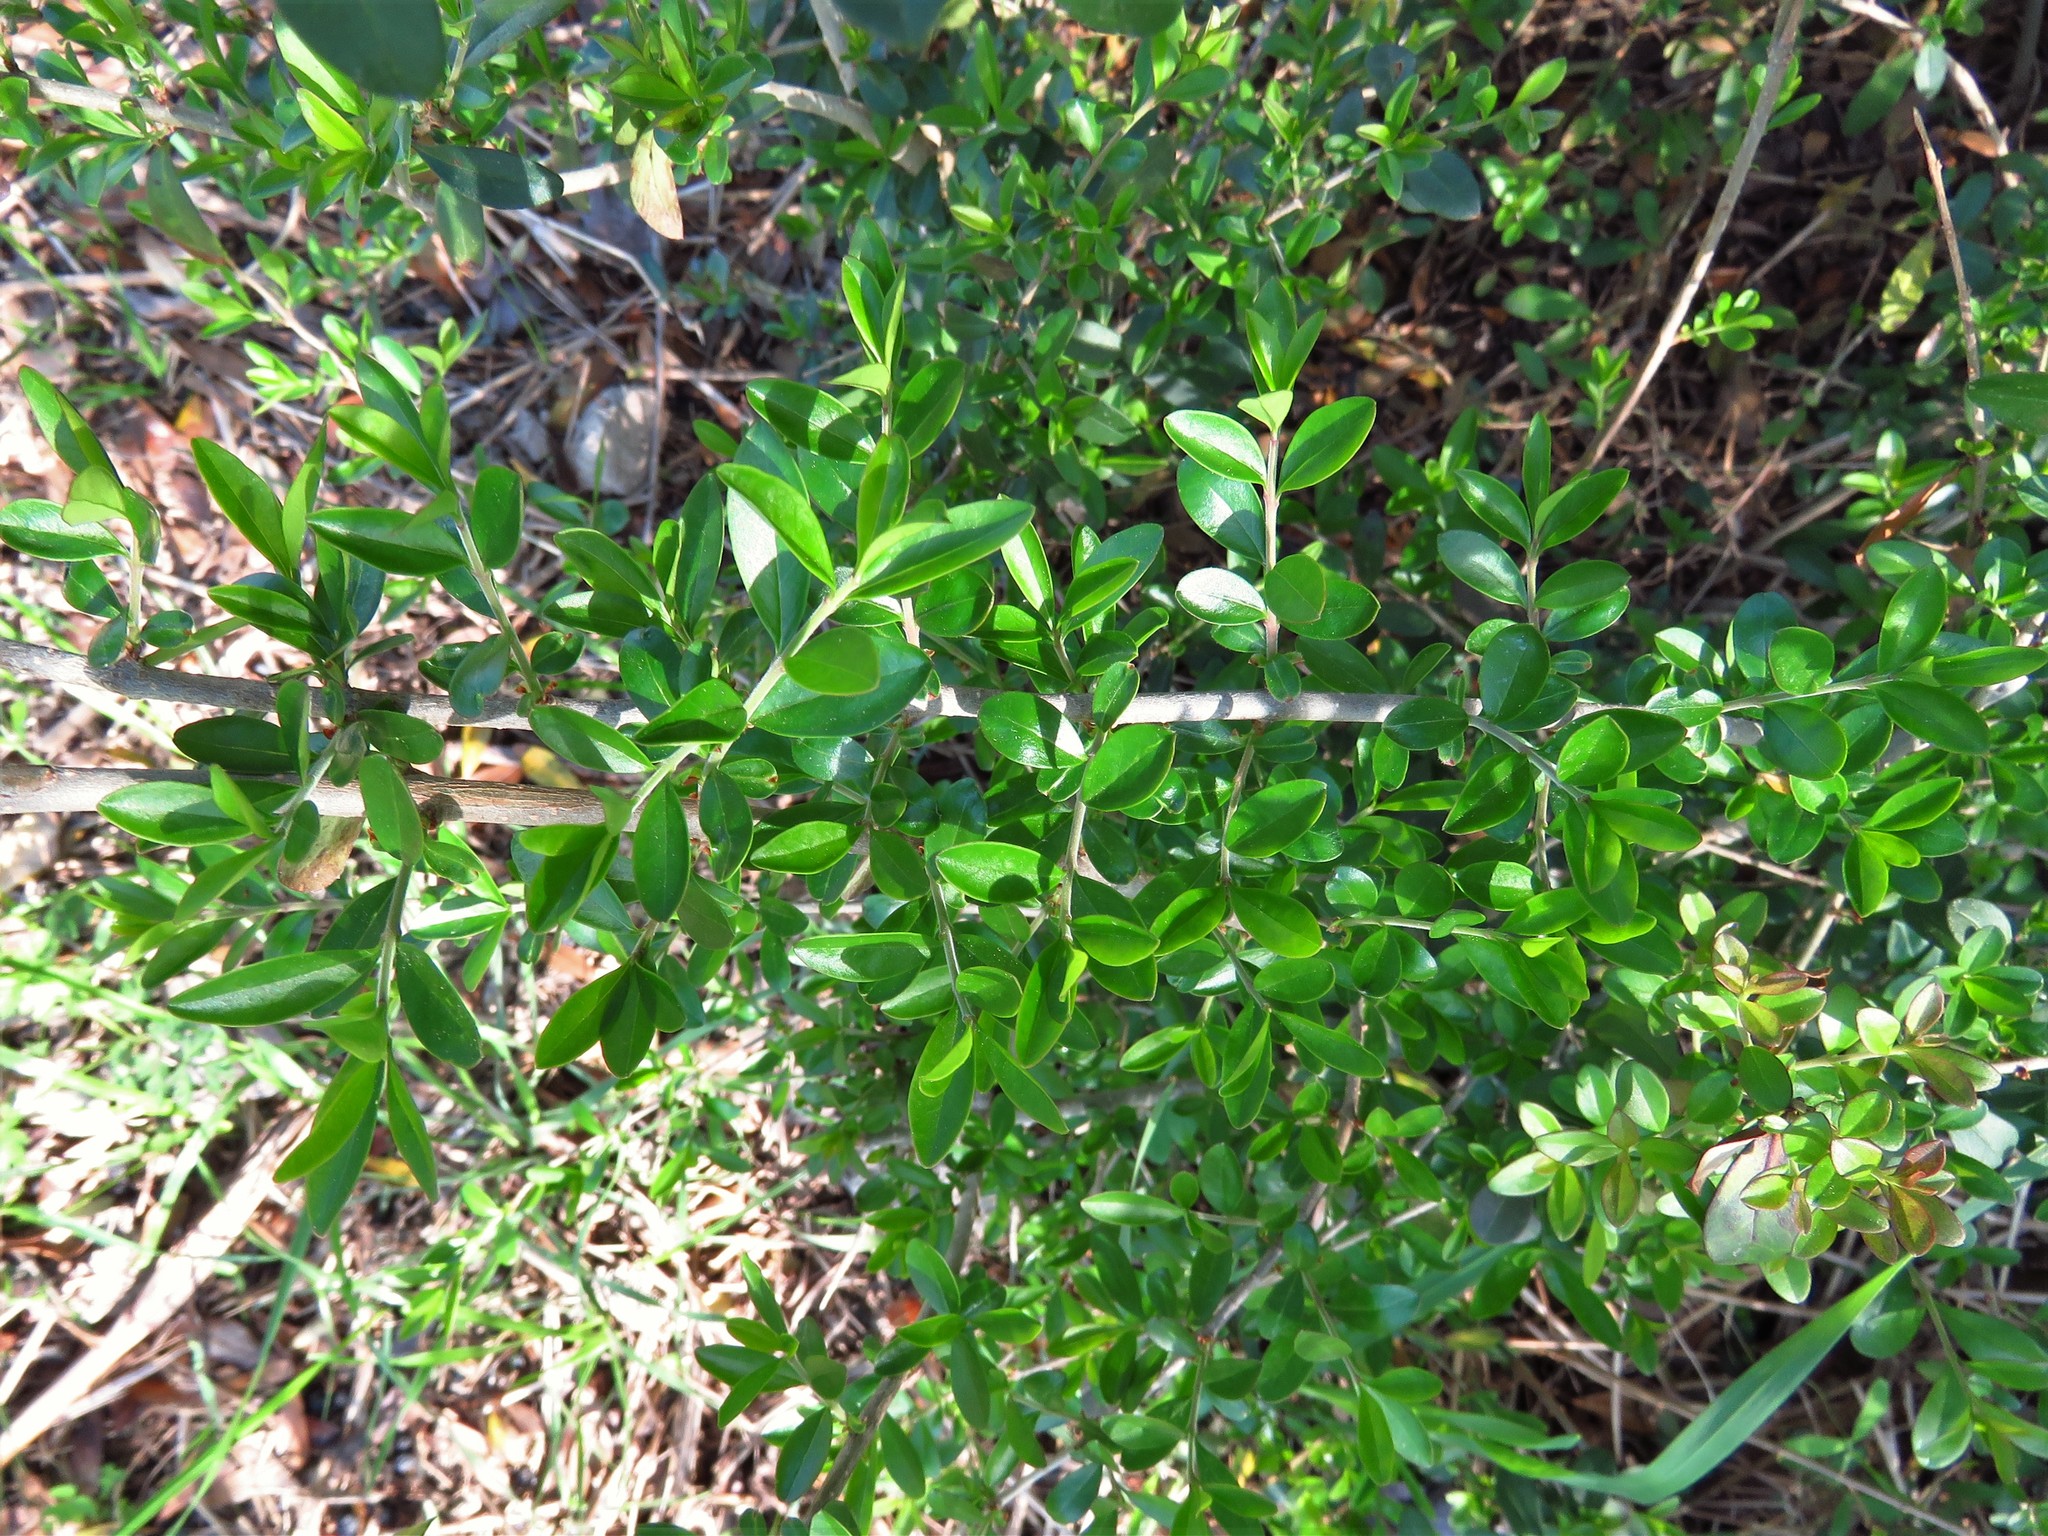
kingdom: Plantae
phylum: Tracheophyta
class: Magnoliopsida
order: Lamiales
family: Oleaceae
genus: Ligustrum
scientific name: Ligustrum quihoui
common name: Waxyleaf privet
